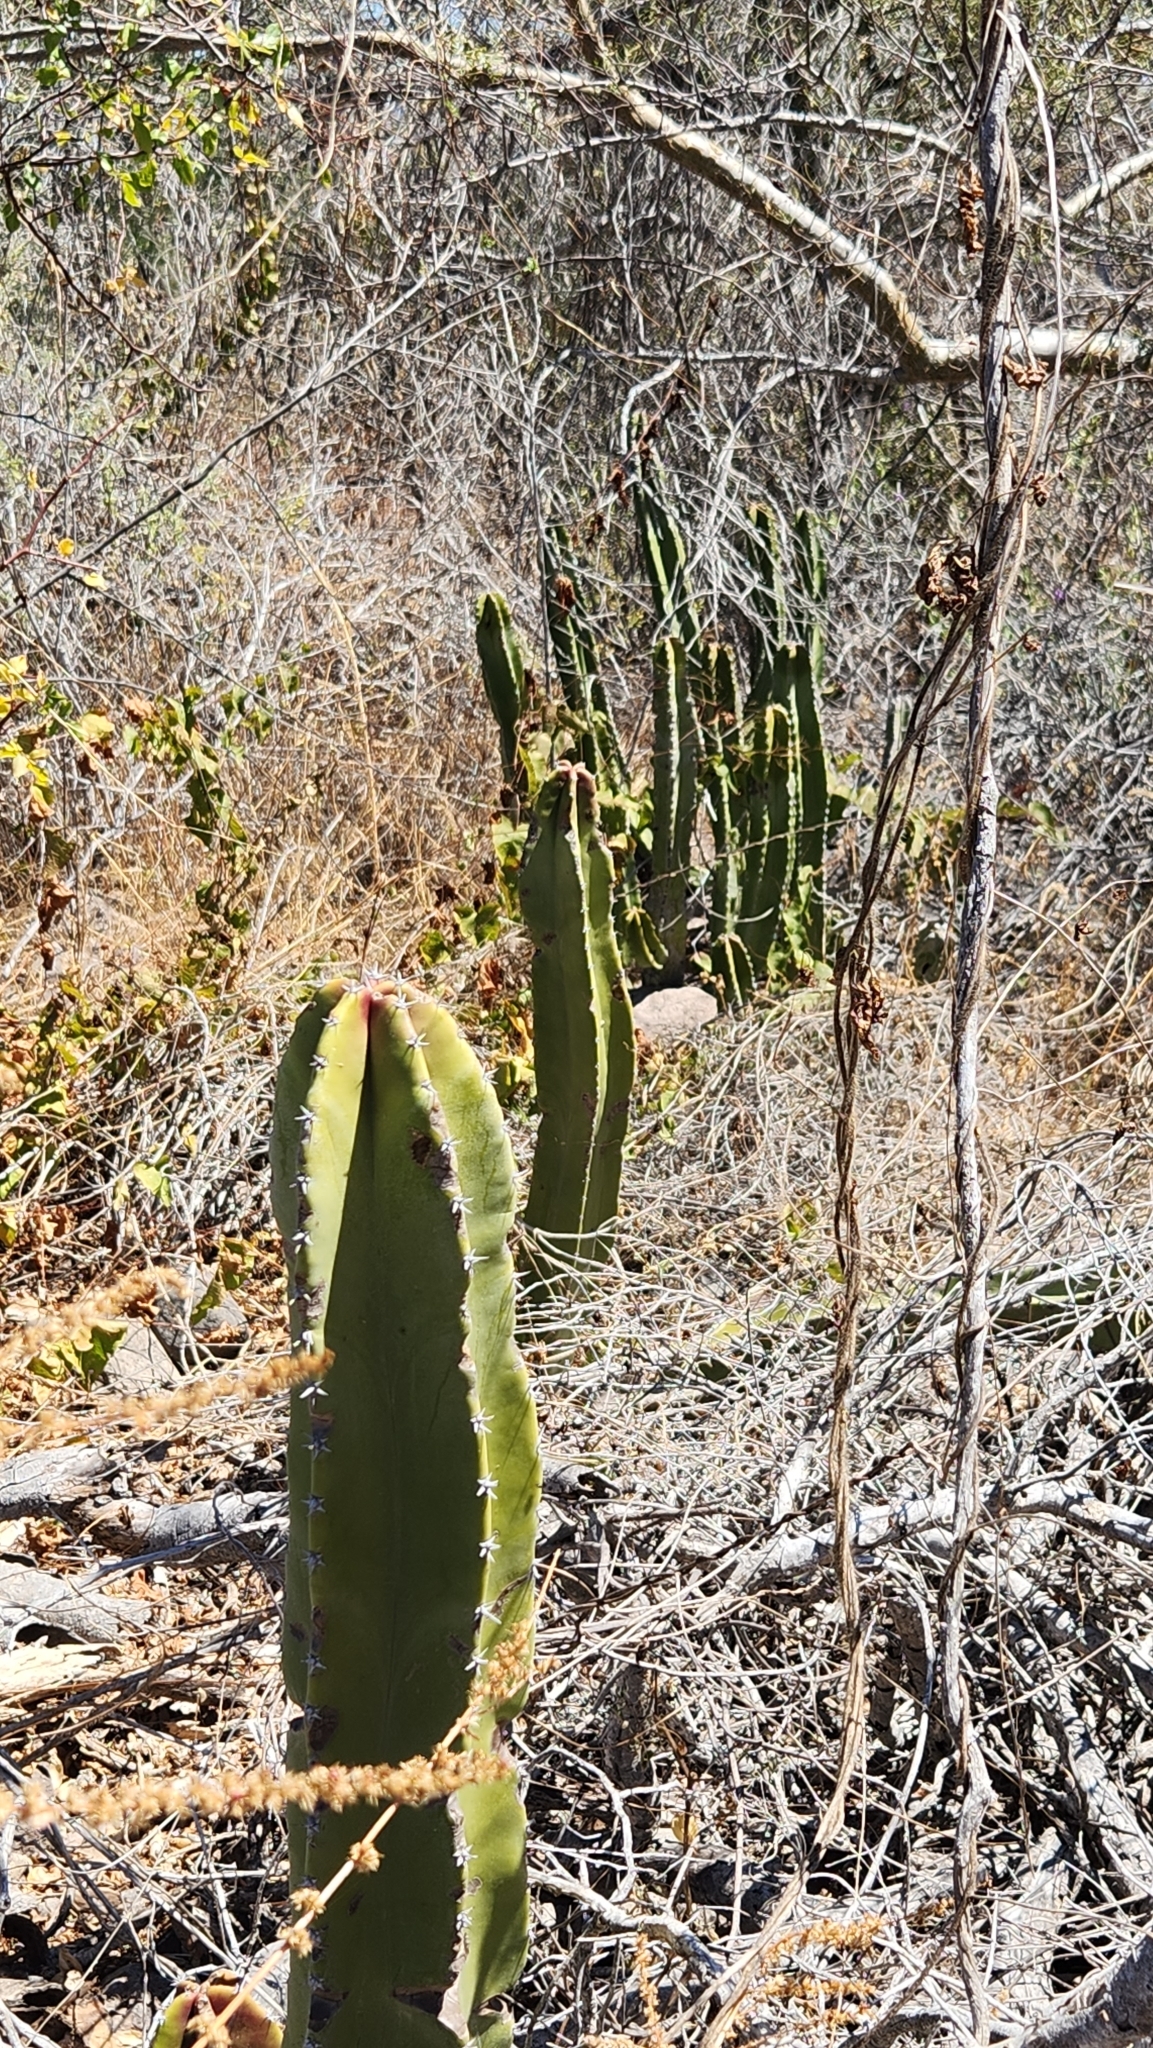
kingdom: Plantae
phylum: Tracheophyta
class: Magnoliopsida
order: Caryophyllales
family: Cactaceae
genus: Pachycereus
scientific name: Pachycereus schottii
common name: Senita cactus
